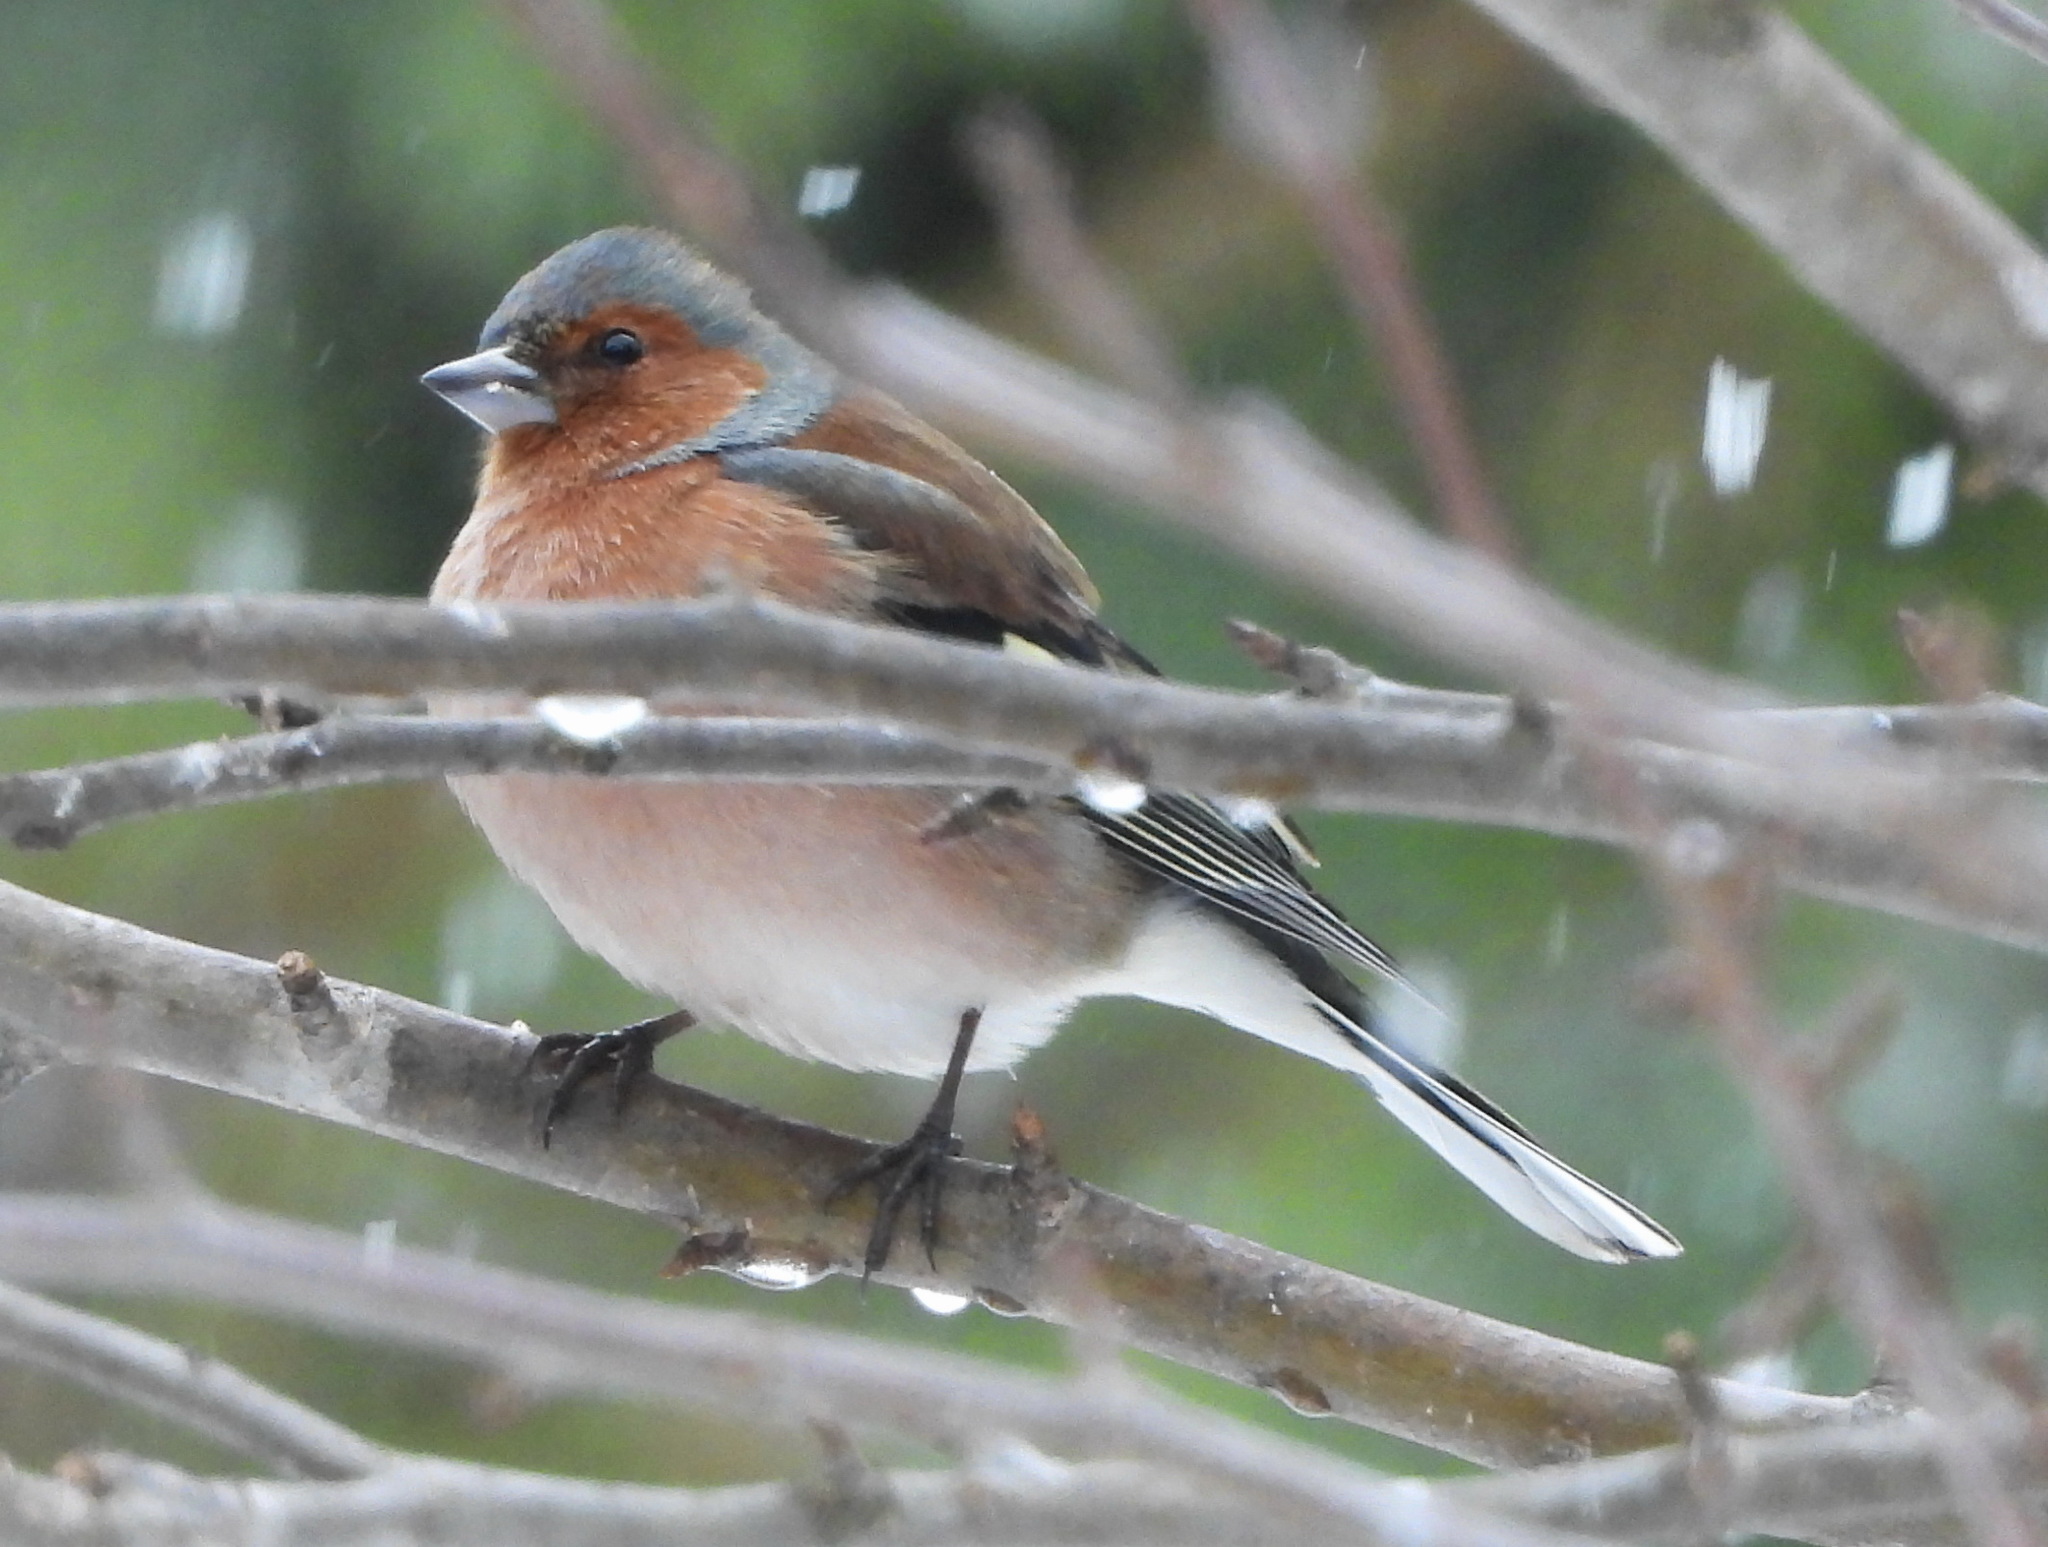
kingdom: Animalia
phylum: Chordata
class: Aves
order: Passeriformes
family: Fringillidae
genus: Fringilla
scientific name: Fringilla coelebs
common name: Common chaffinch
